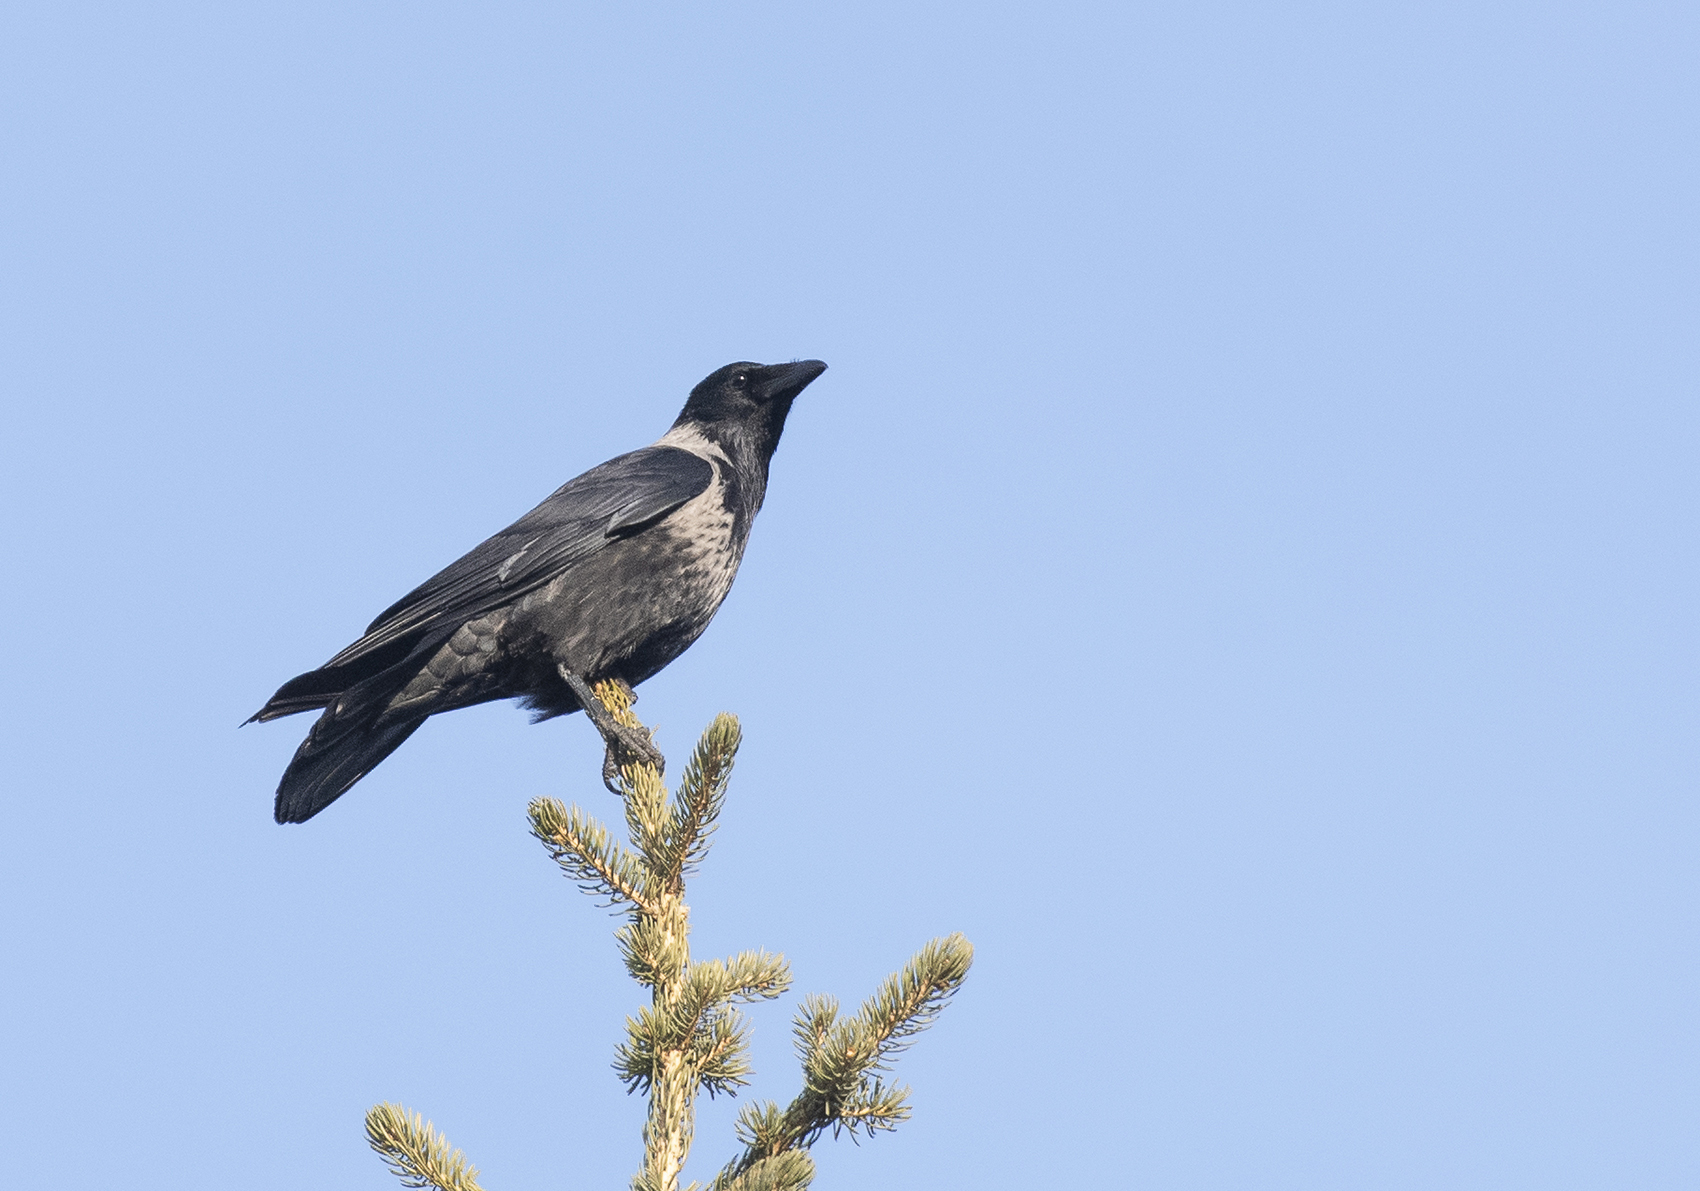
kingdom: Animalia
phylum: Chordata
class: Aves
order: Passeriformes
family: Corvidae
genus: Corvus
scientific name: Corvus
